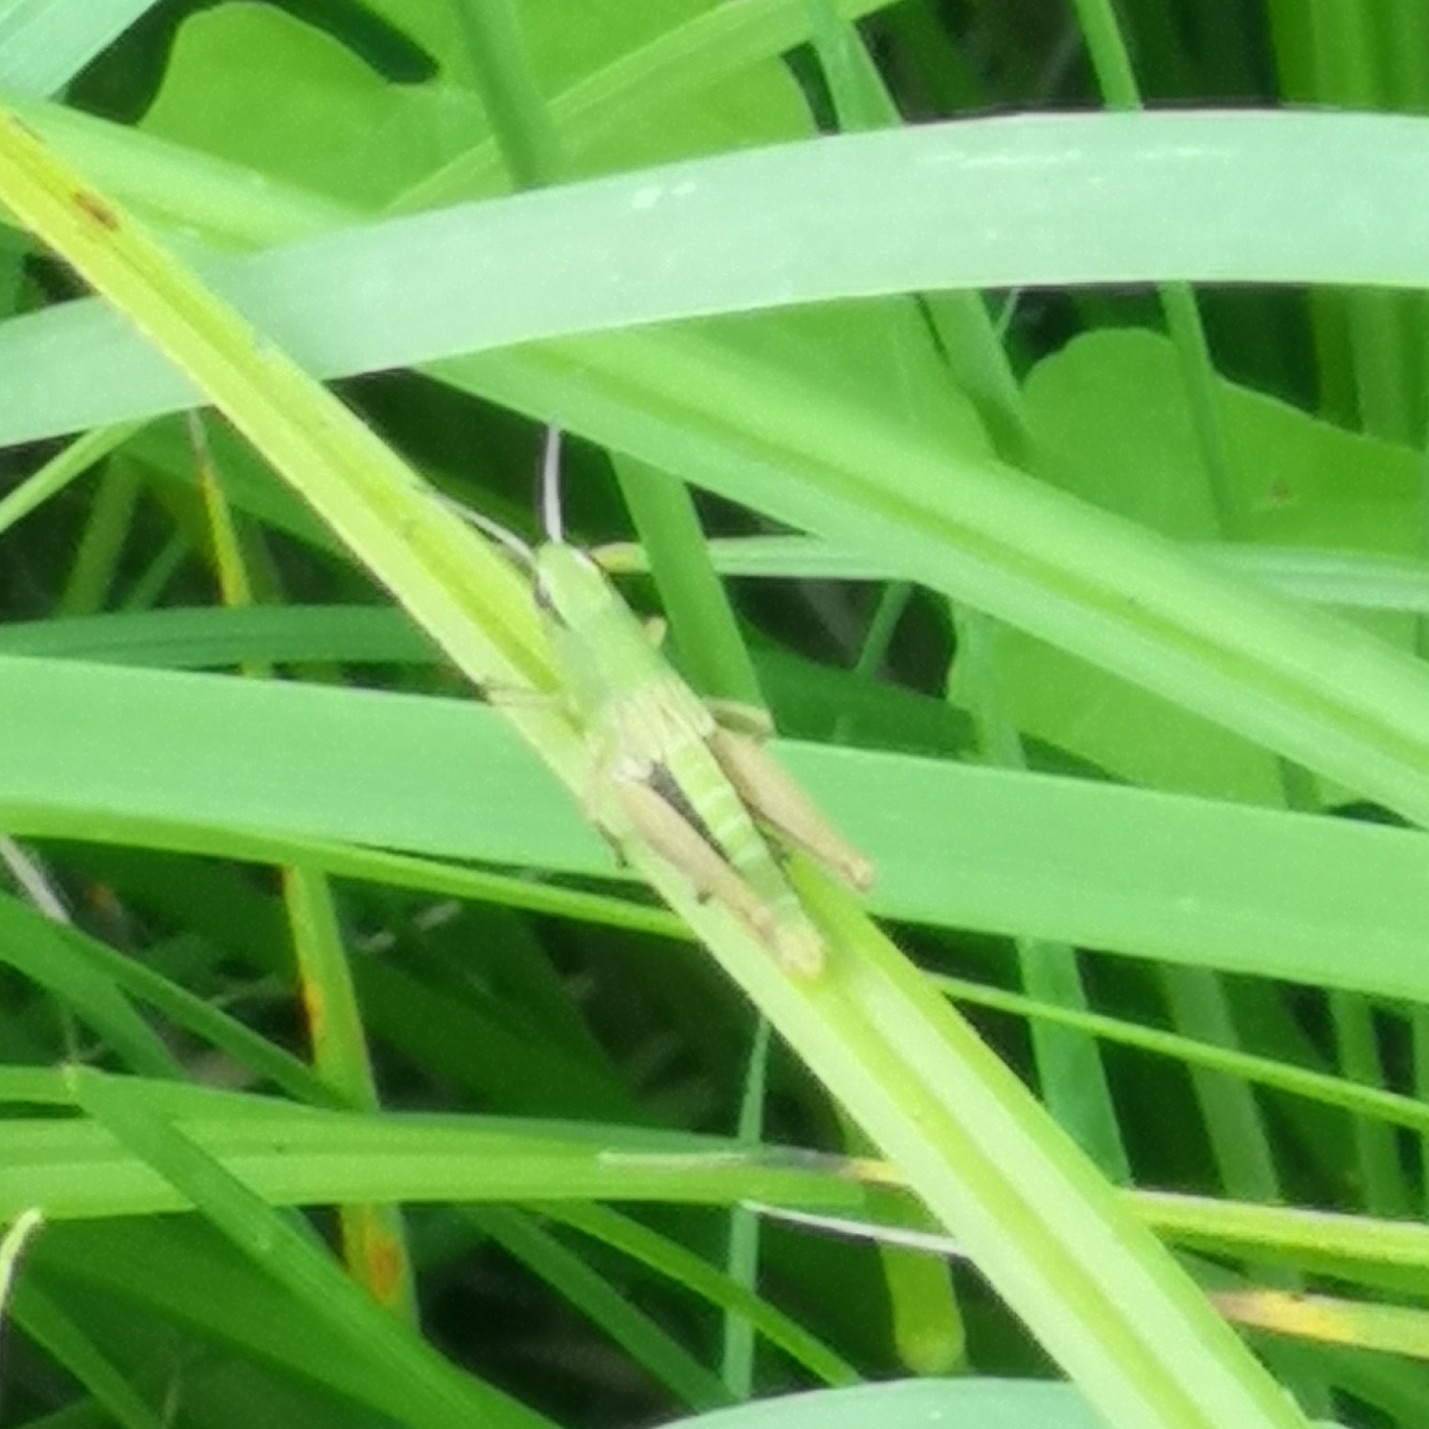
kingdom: Animalia
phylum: Arthropoda
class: Insecta
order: Orthoptera
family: Acrididae
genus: Pseudochorthippus
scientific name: Pseudochorthippus parallelus
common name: Meadow grasshopper
